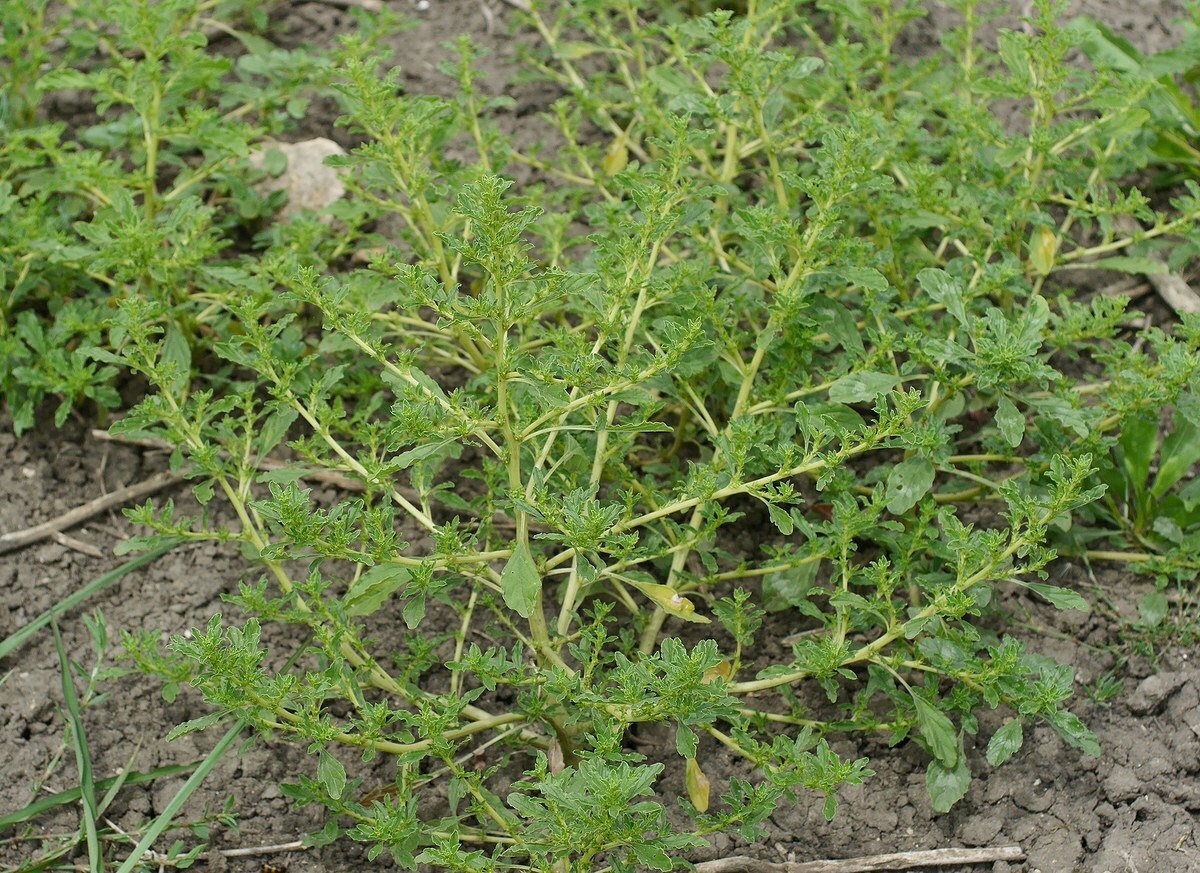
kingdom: Plantae
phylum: Tracheophyta
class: Magnoliopsida
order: Caryophyllales
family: Amaranthaceae
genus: Amaranthus
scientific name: Amaranthus albus
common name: White pigweed
